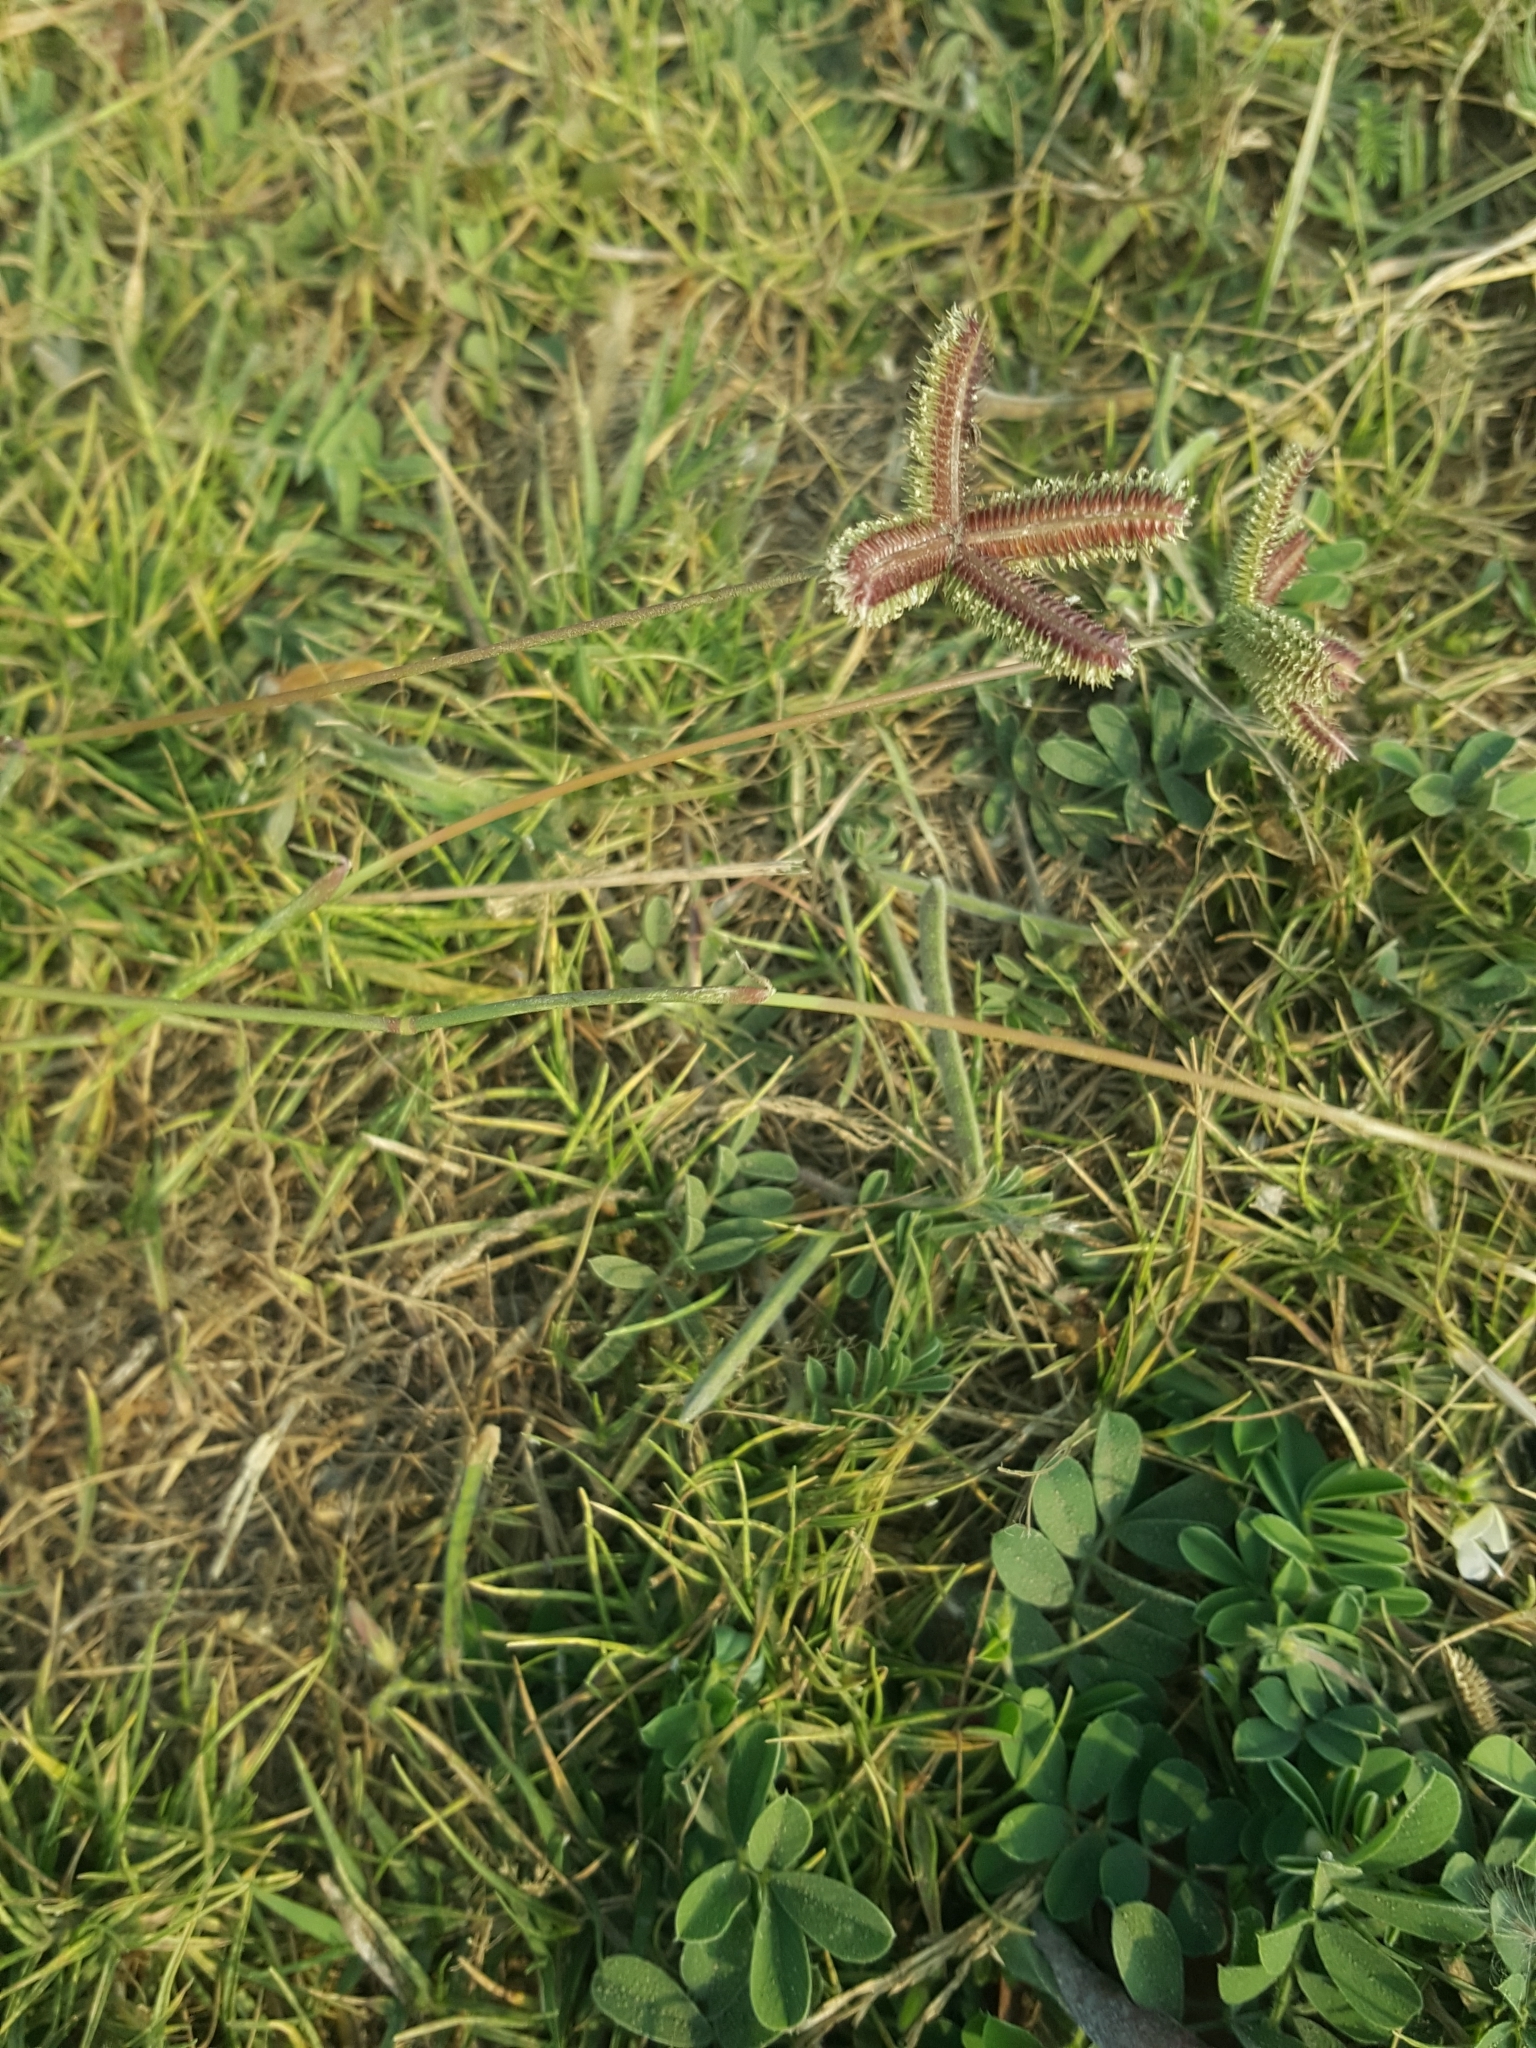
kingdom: Plantae
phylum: Tracheophyta
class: Liliopsida
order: Poales
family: Poaceae
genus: Dactyloctenium
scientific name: Dactyloctenium aegyptium
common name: Egyptian grass
